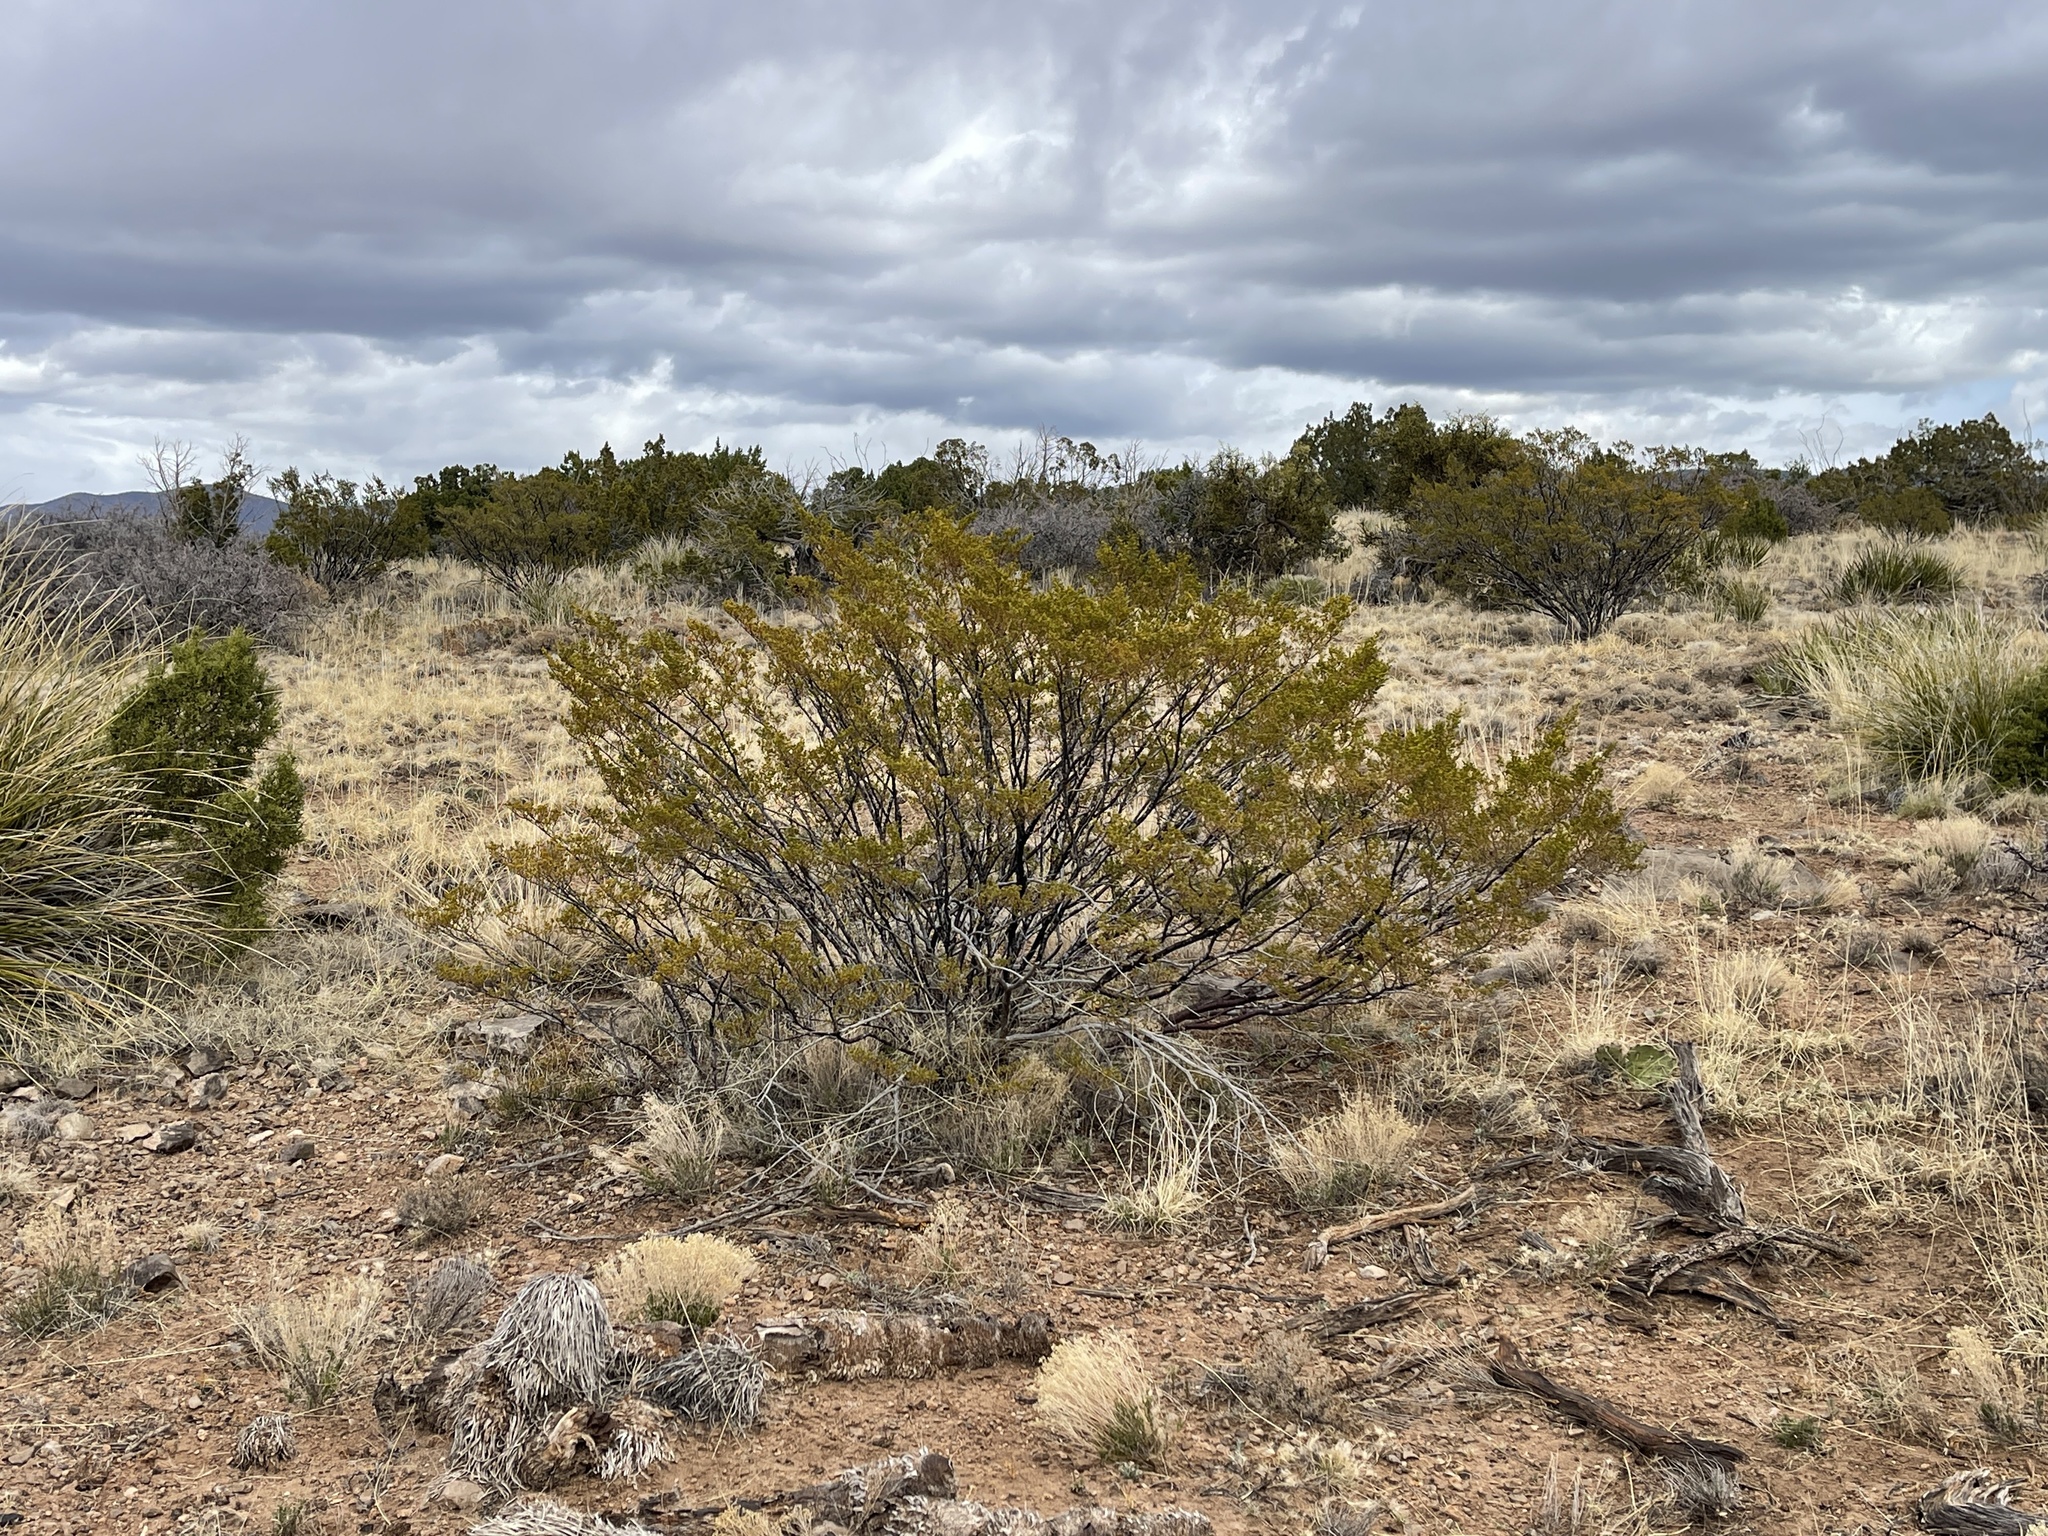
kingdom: Plantae
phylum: Tracheophyta
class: Magnoliopsida
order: Zygophyllales
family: Zygophyllaceae
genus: Larrea
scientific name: Larrea tridentata
